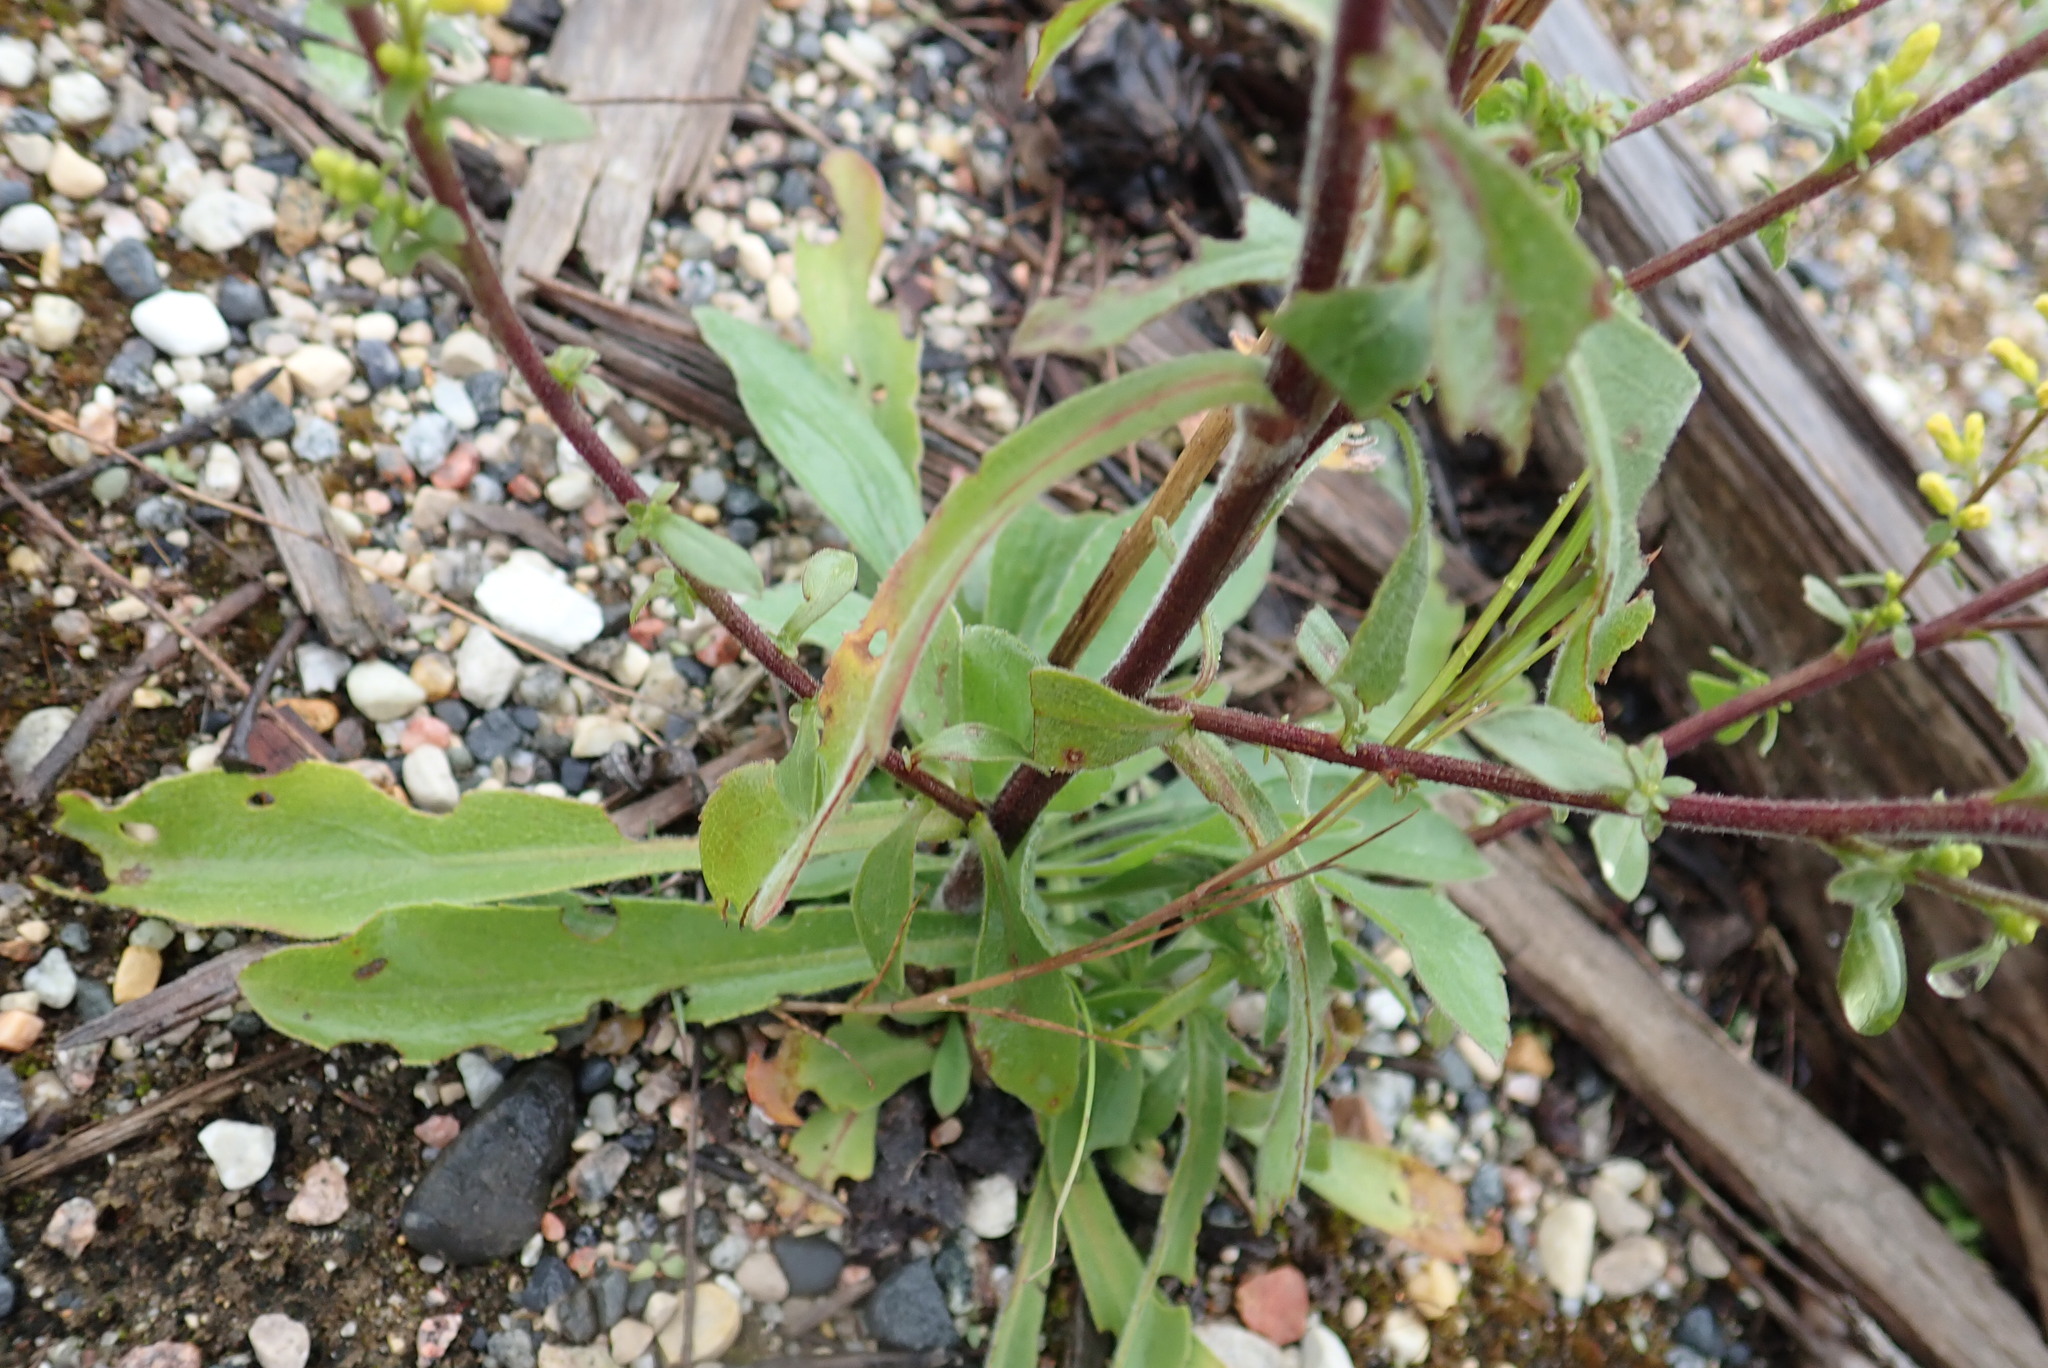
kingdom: Plantae
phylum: Tracheophyta
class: Magnoliopsida
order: Asterales
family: Asteraceae
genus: Solidago
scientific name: Solidago hispida
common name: Hairy goldenrod
